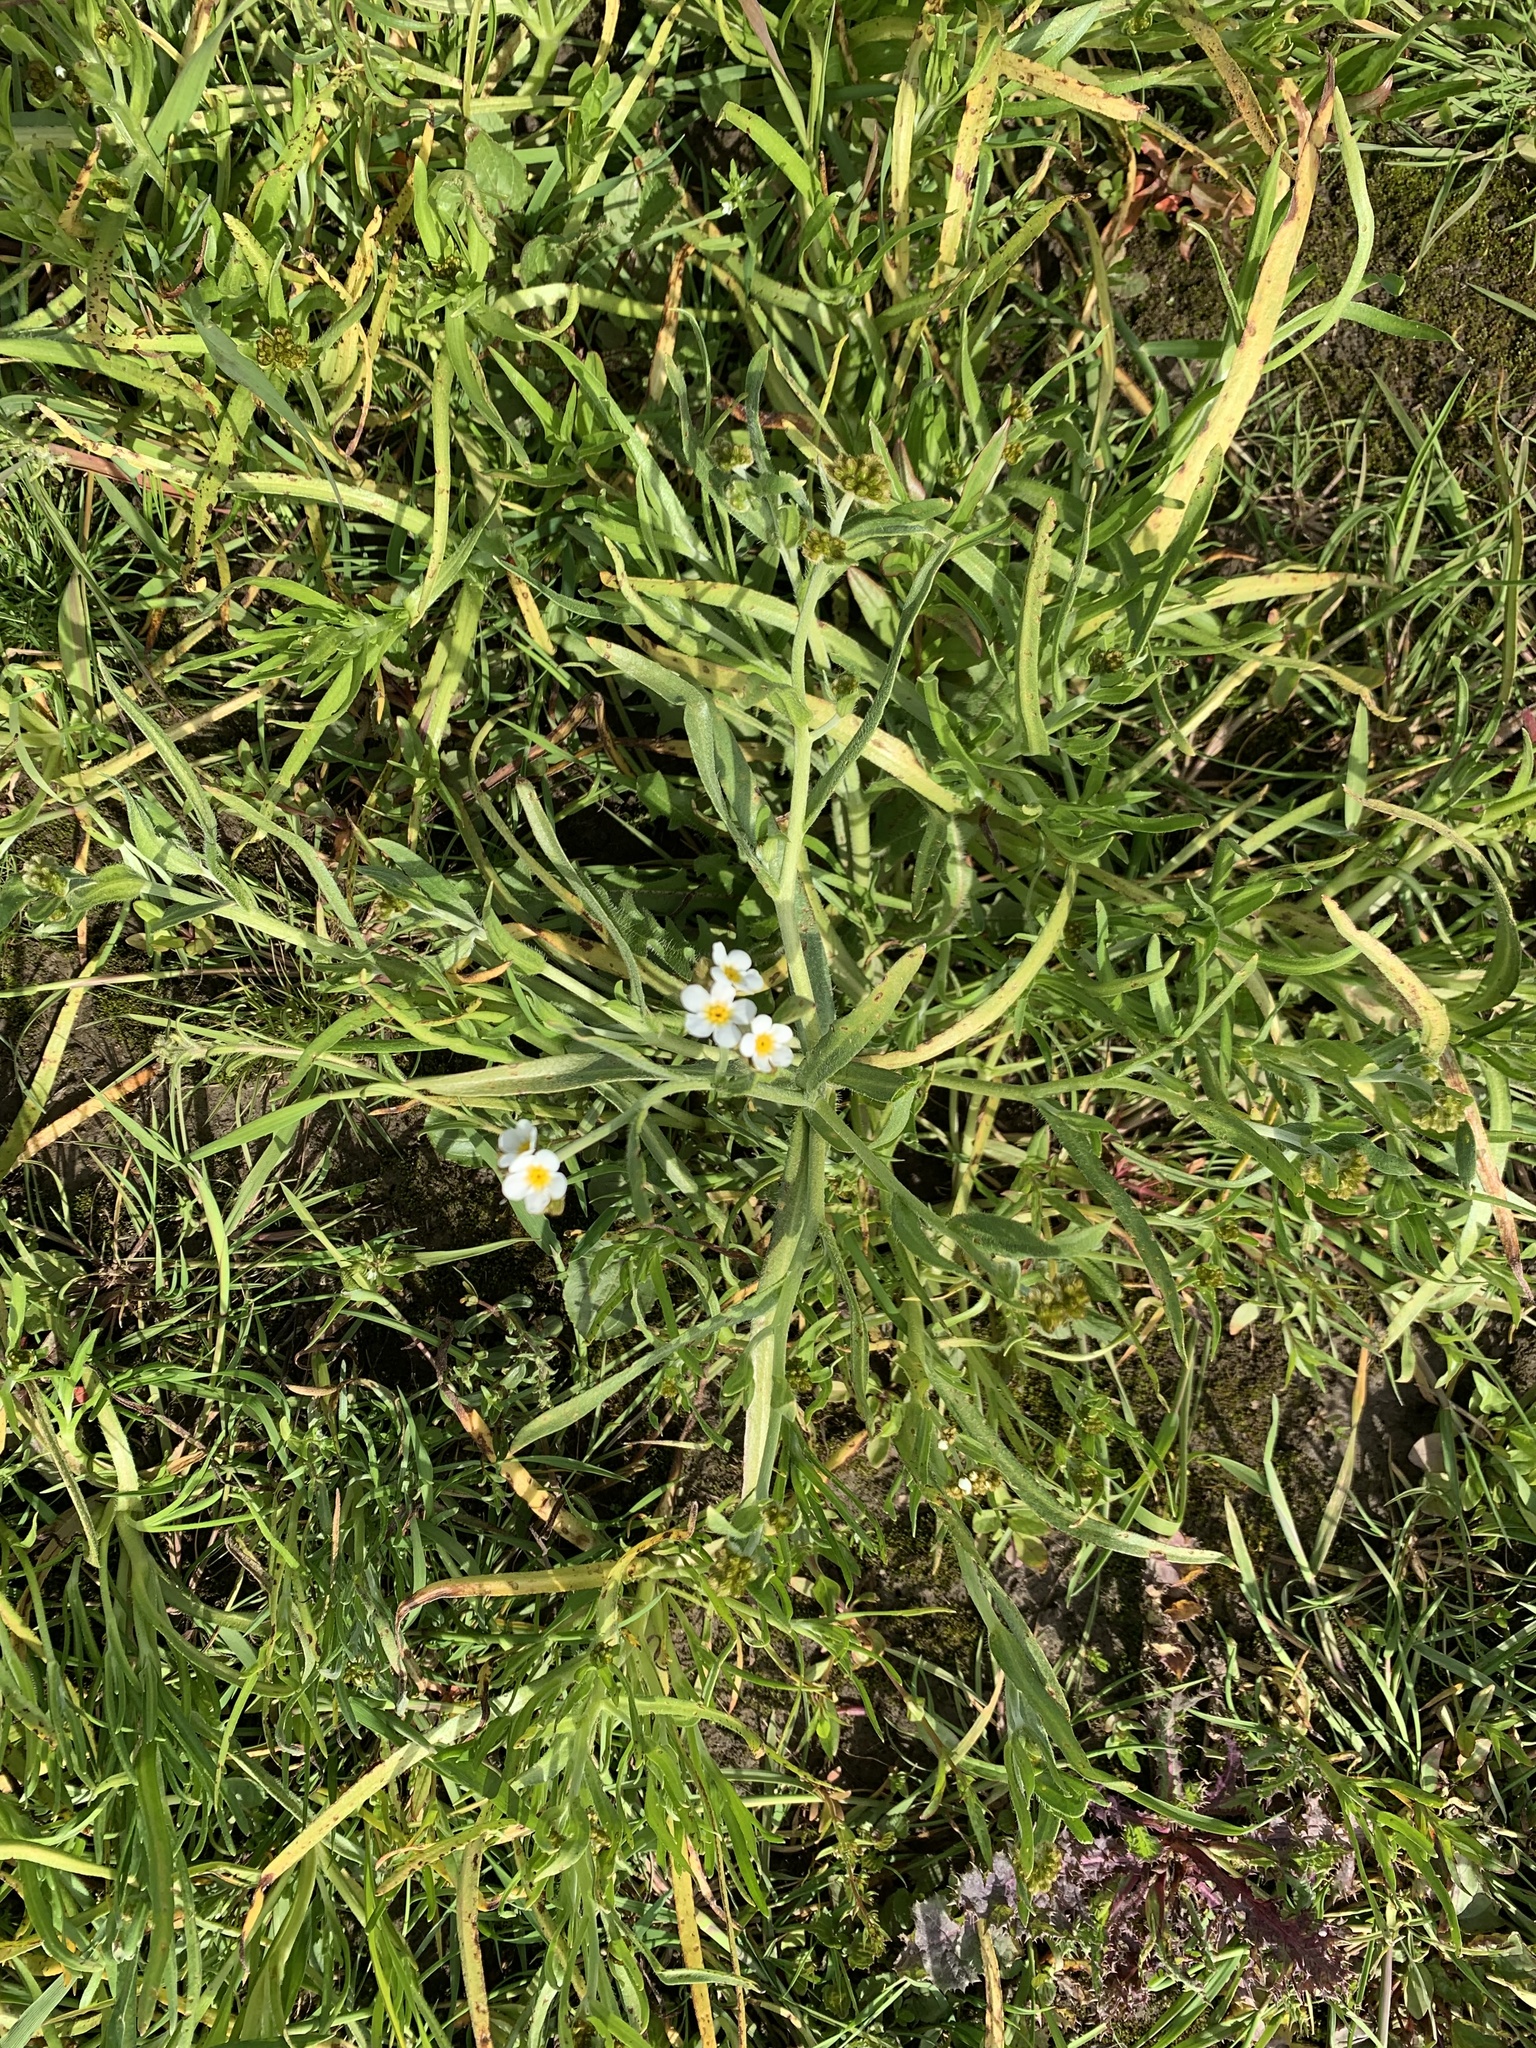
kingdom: Plantae
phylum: Tracheophyta
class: Magnoliopsida
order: Boraginales
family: Boraginaceae
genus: Plagiobothrys
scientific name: Plagiobothrys scouleri
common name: White forget-me-not
